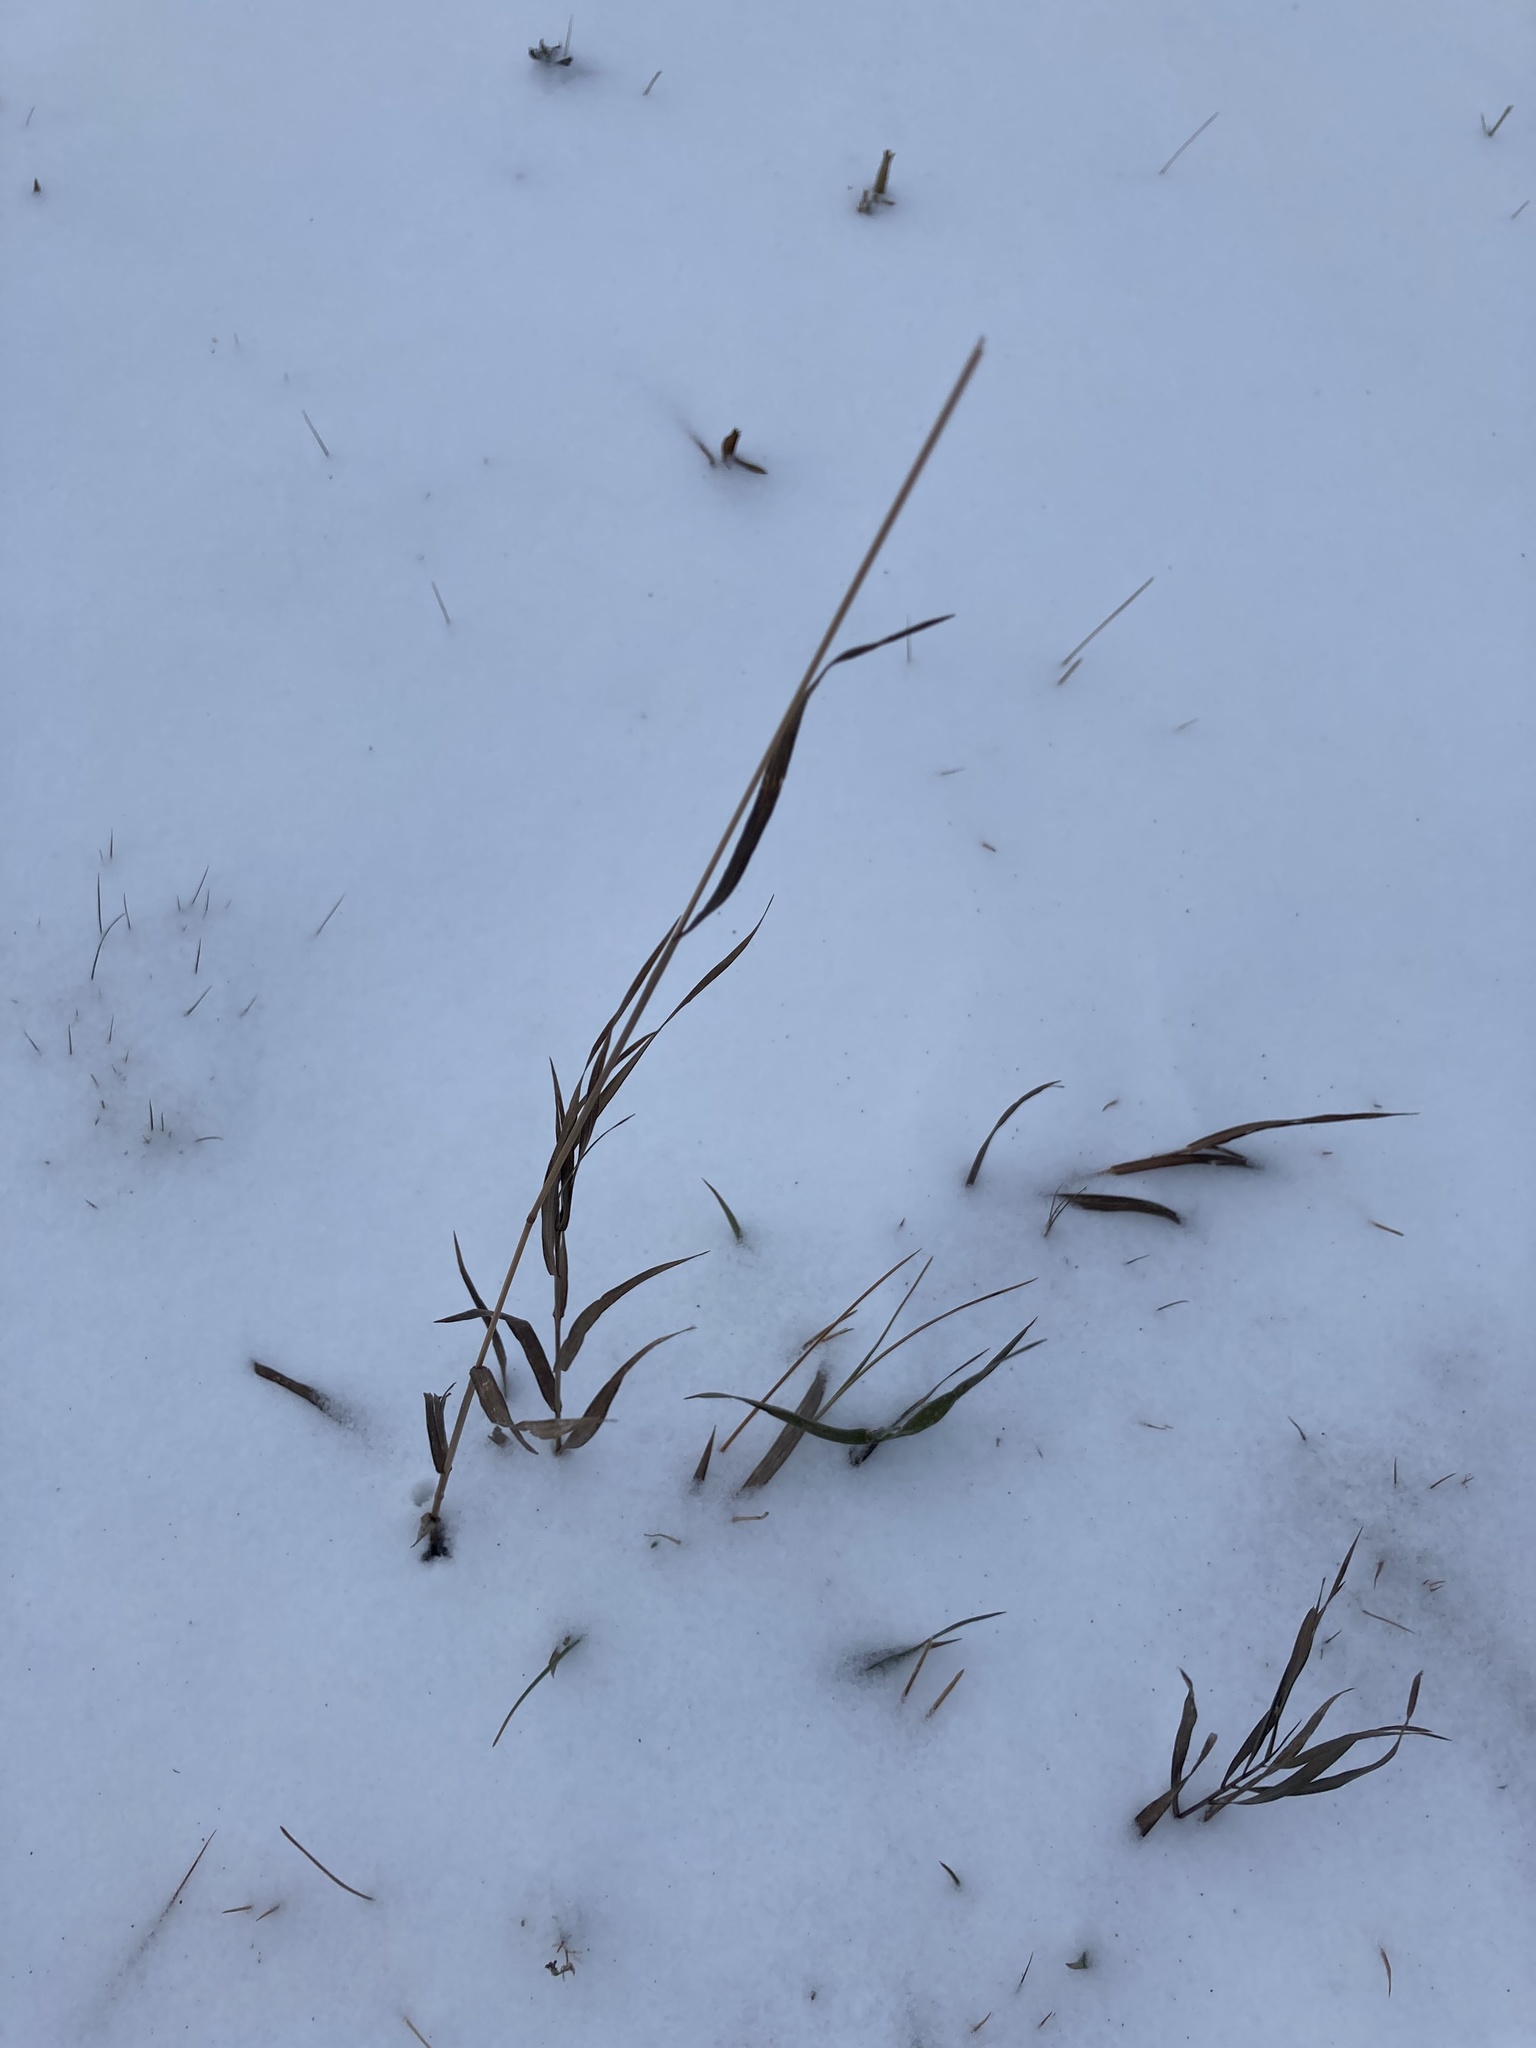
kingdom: Plantae
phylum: Tracheophyta
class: Liliopsida
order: Poales
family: Poaceae
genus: Bromus
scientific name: Bromus inermis
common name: Smooth brome
